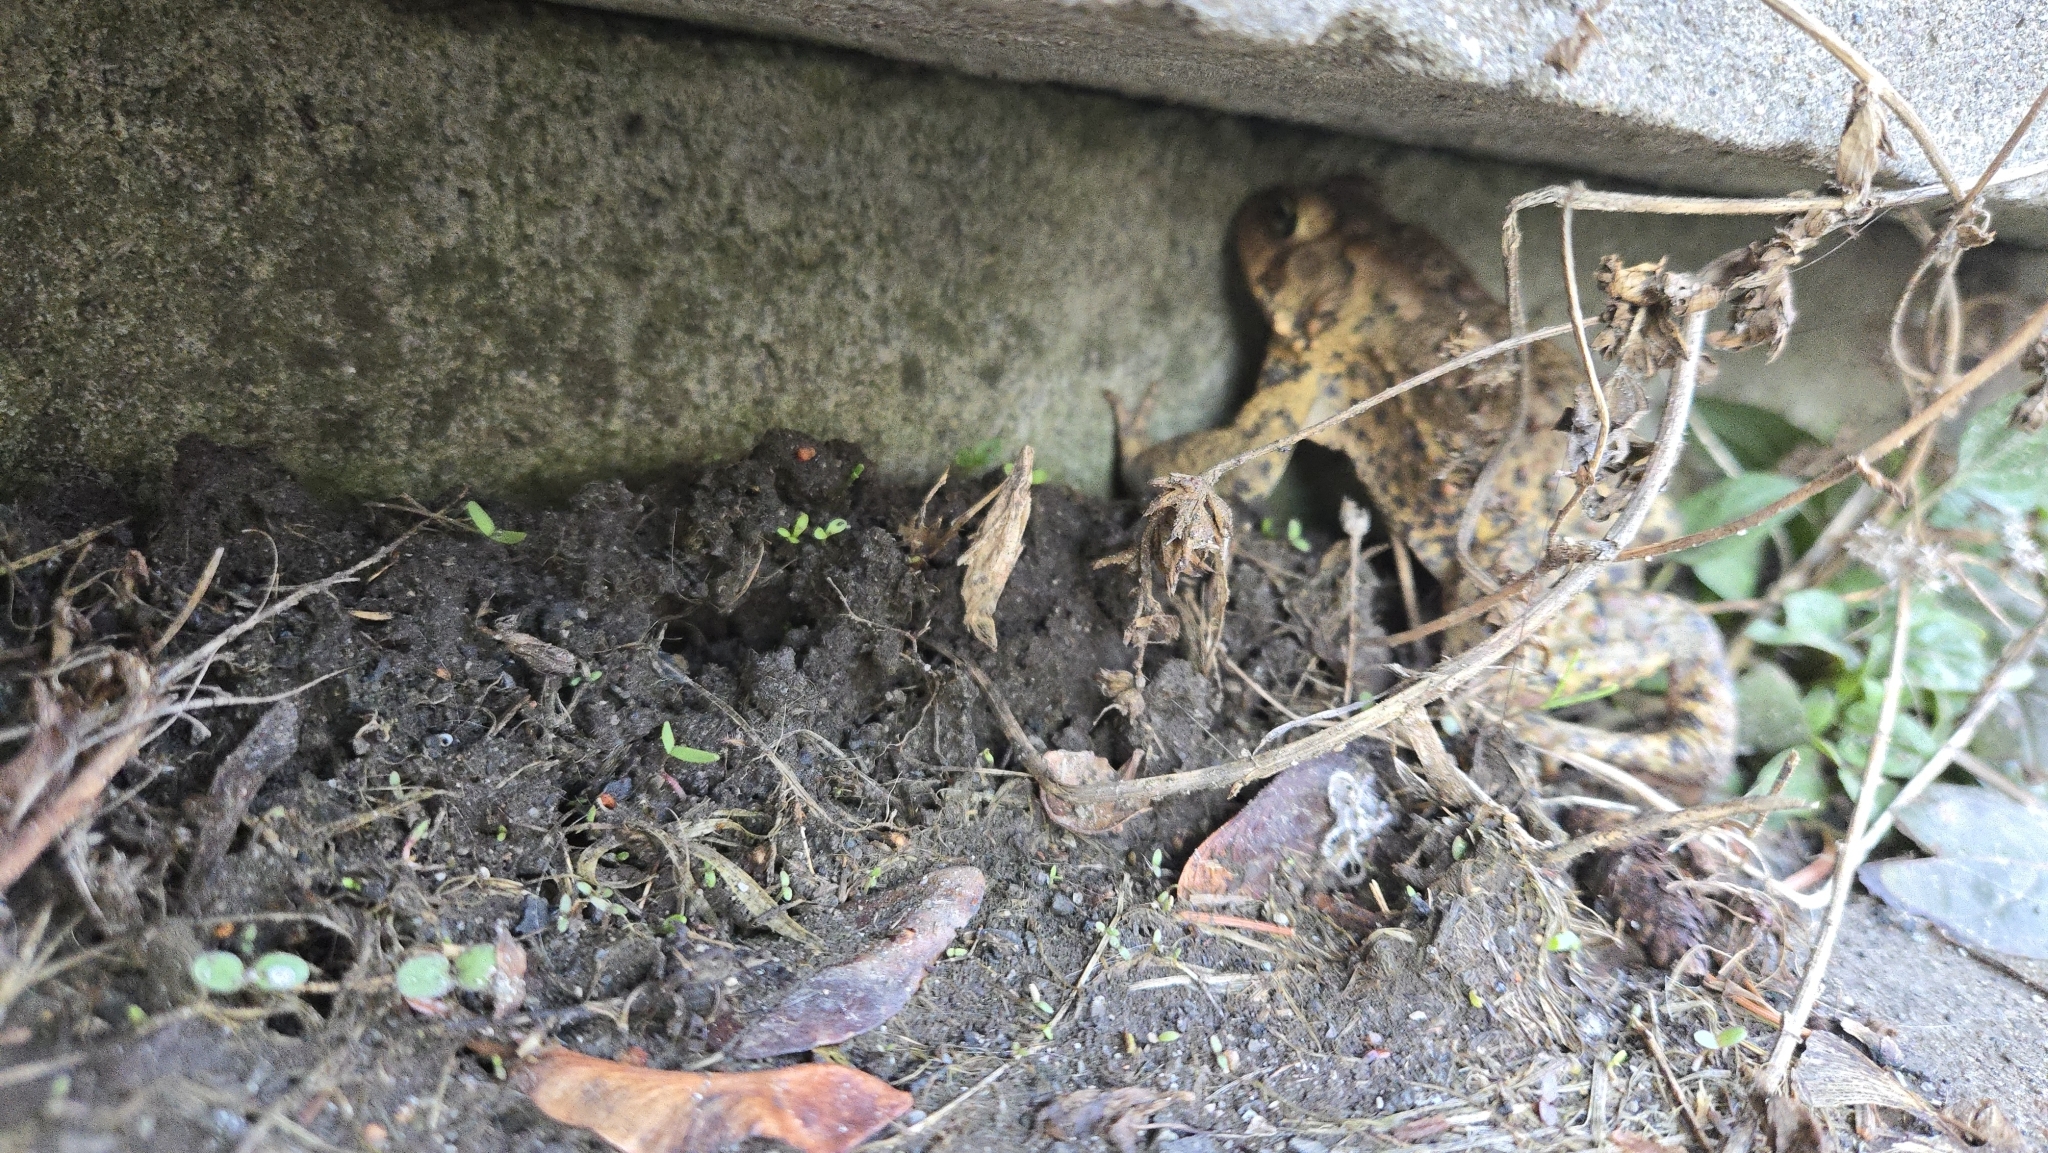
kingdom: Animalia
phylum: Chordata
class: Amphibia
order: Anura
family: Bufonidae
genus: Anaxyrus
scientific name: Anaxyrus americanus
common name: American toad
